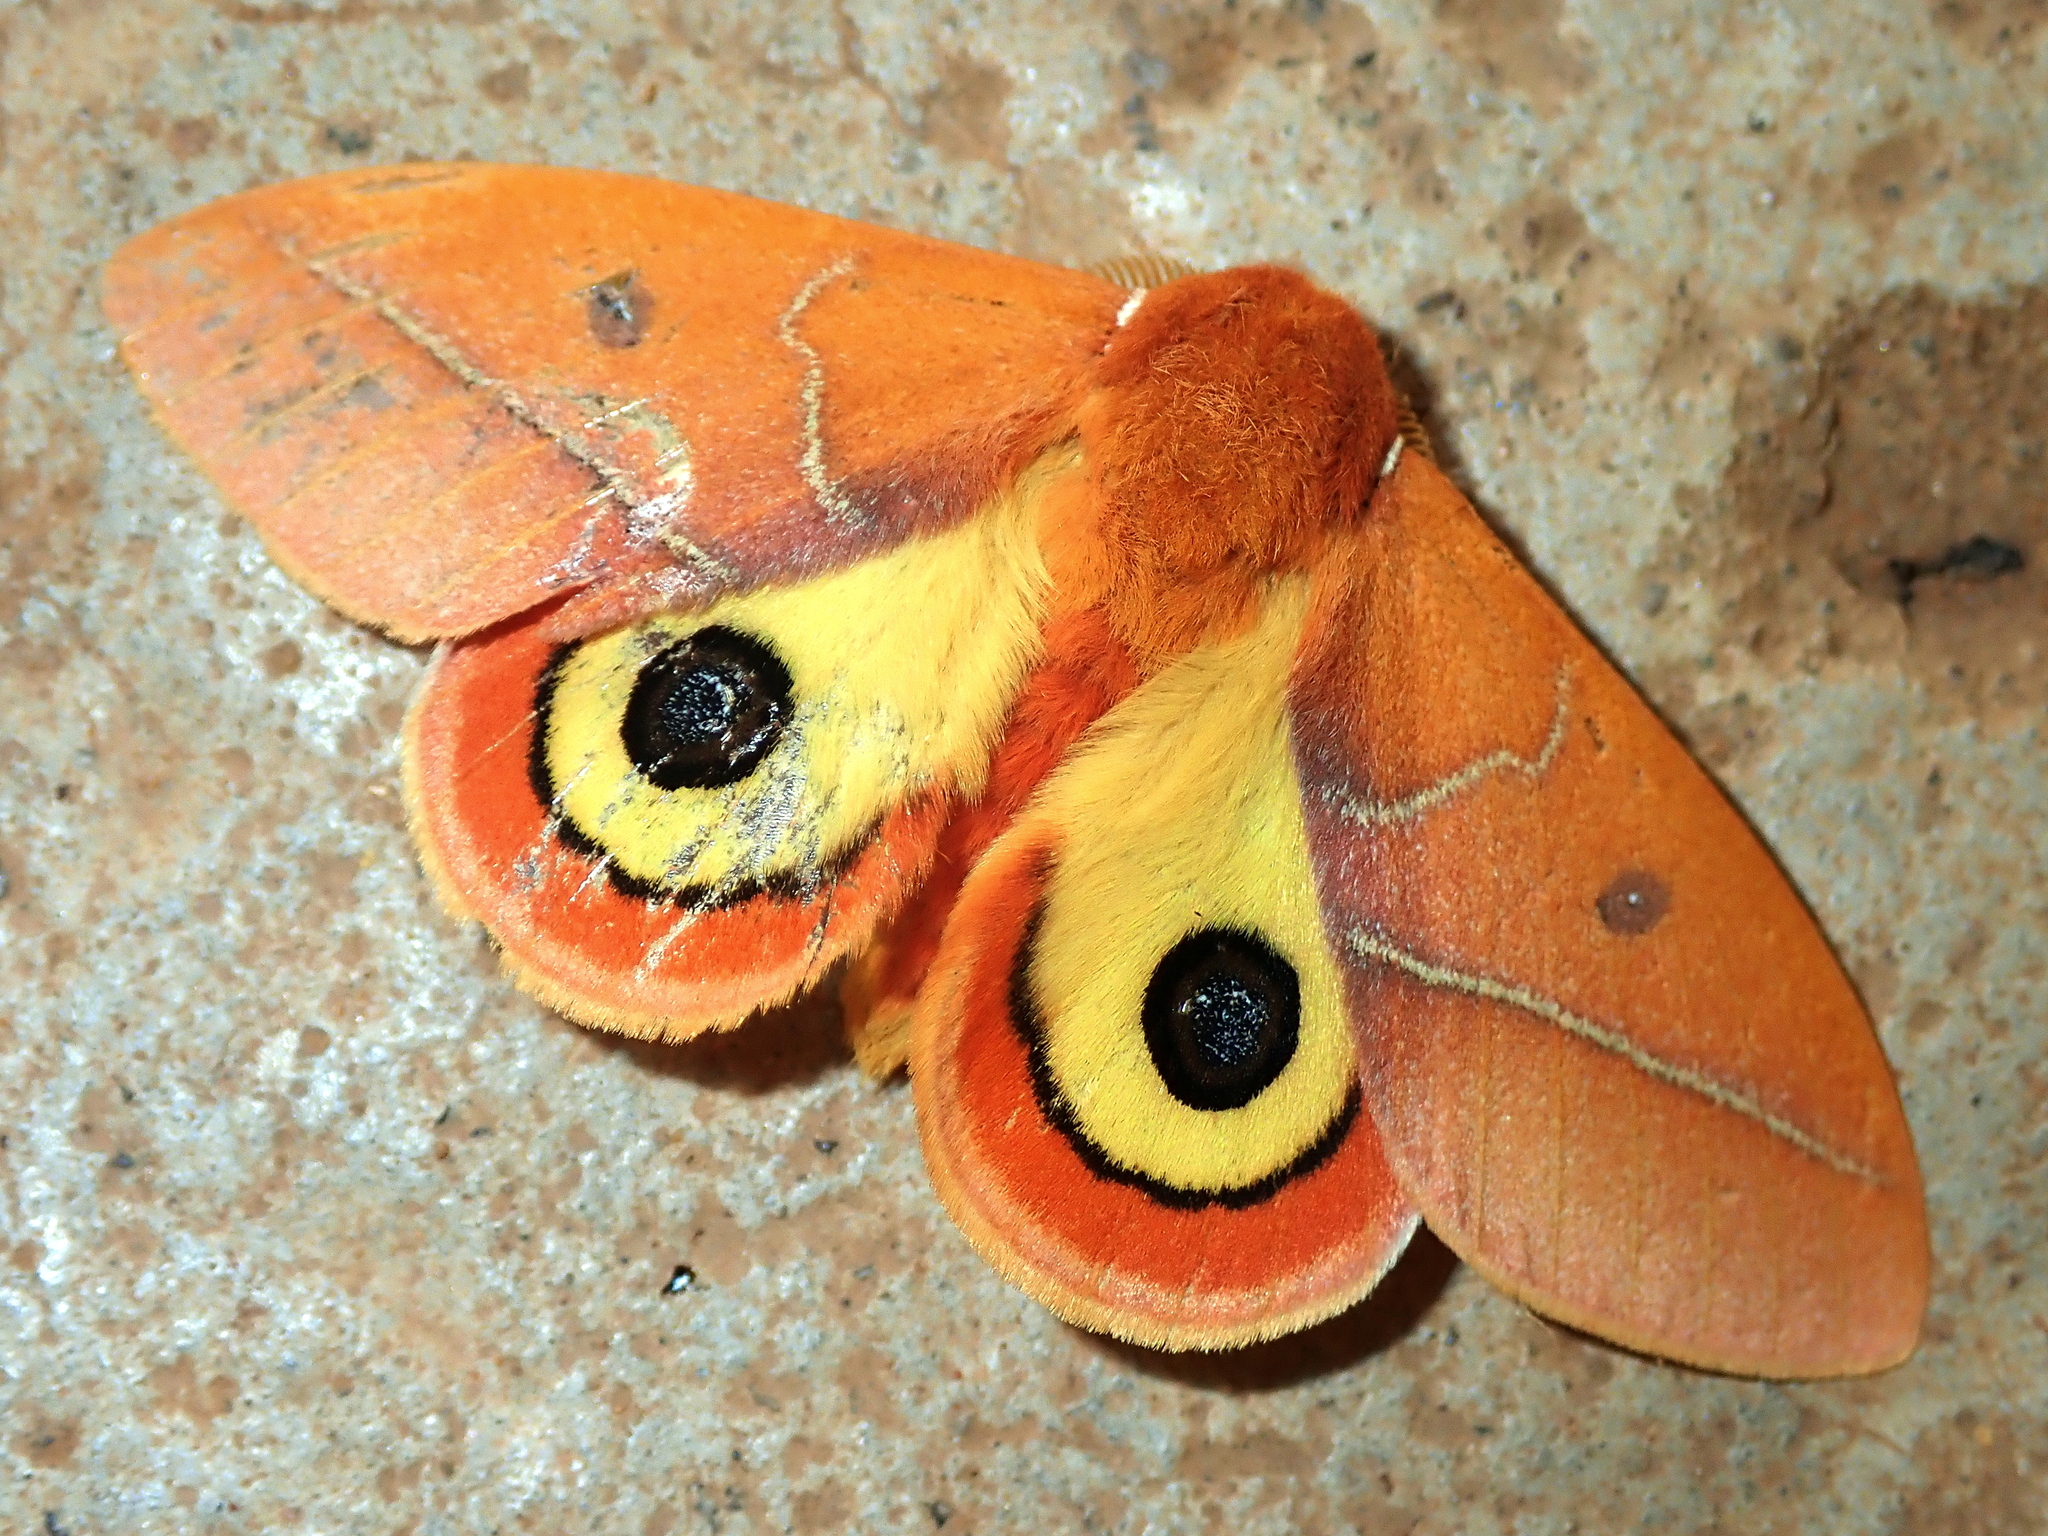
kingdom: Animalia
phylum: Arthropoda
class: Insecta
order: Lepidoptera
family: Saturniidae
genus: Automeris
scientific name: Automeris granulosa
